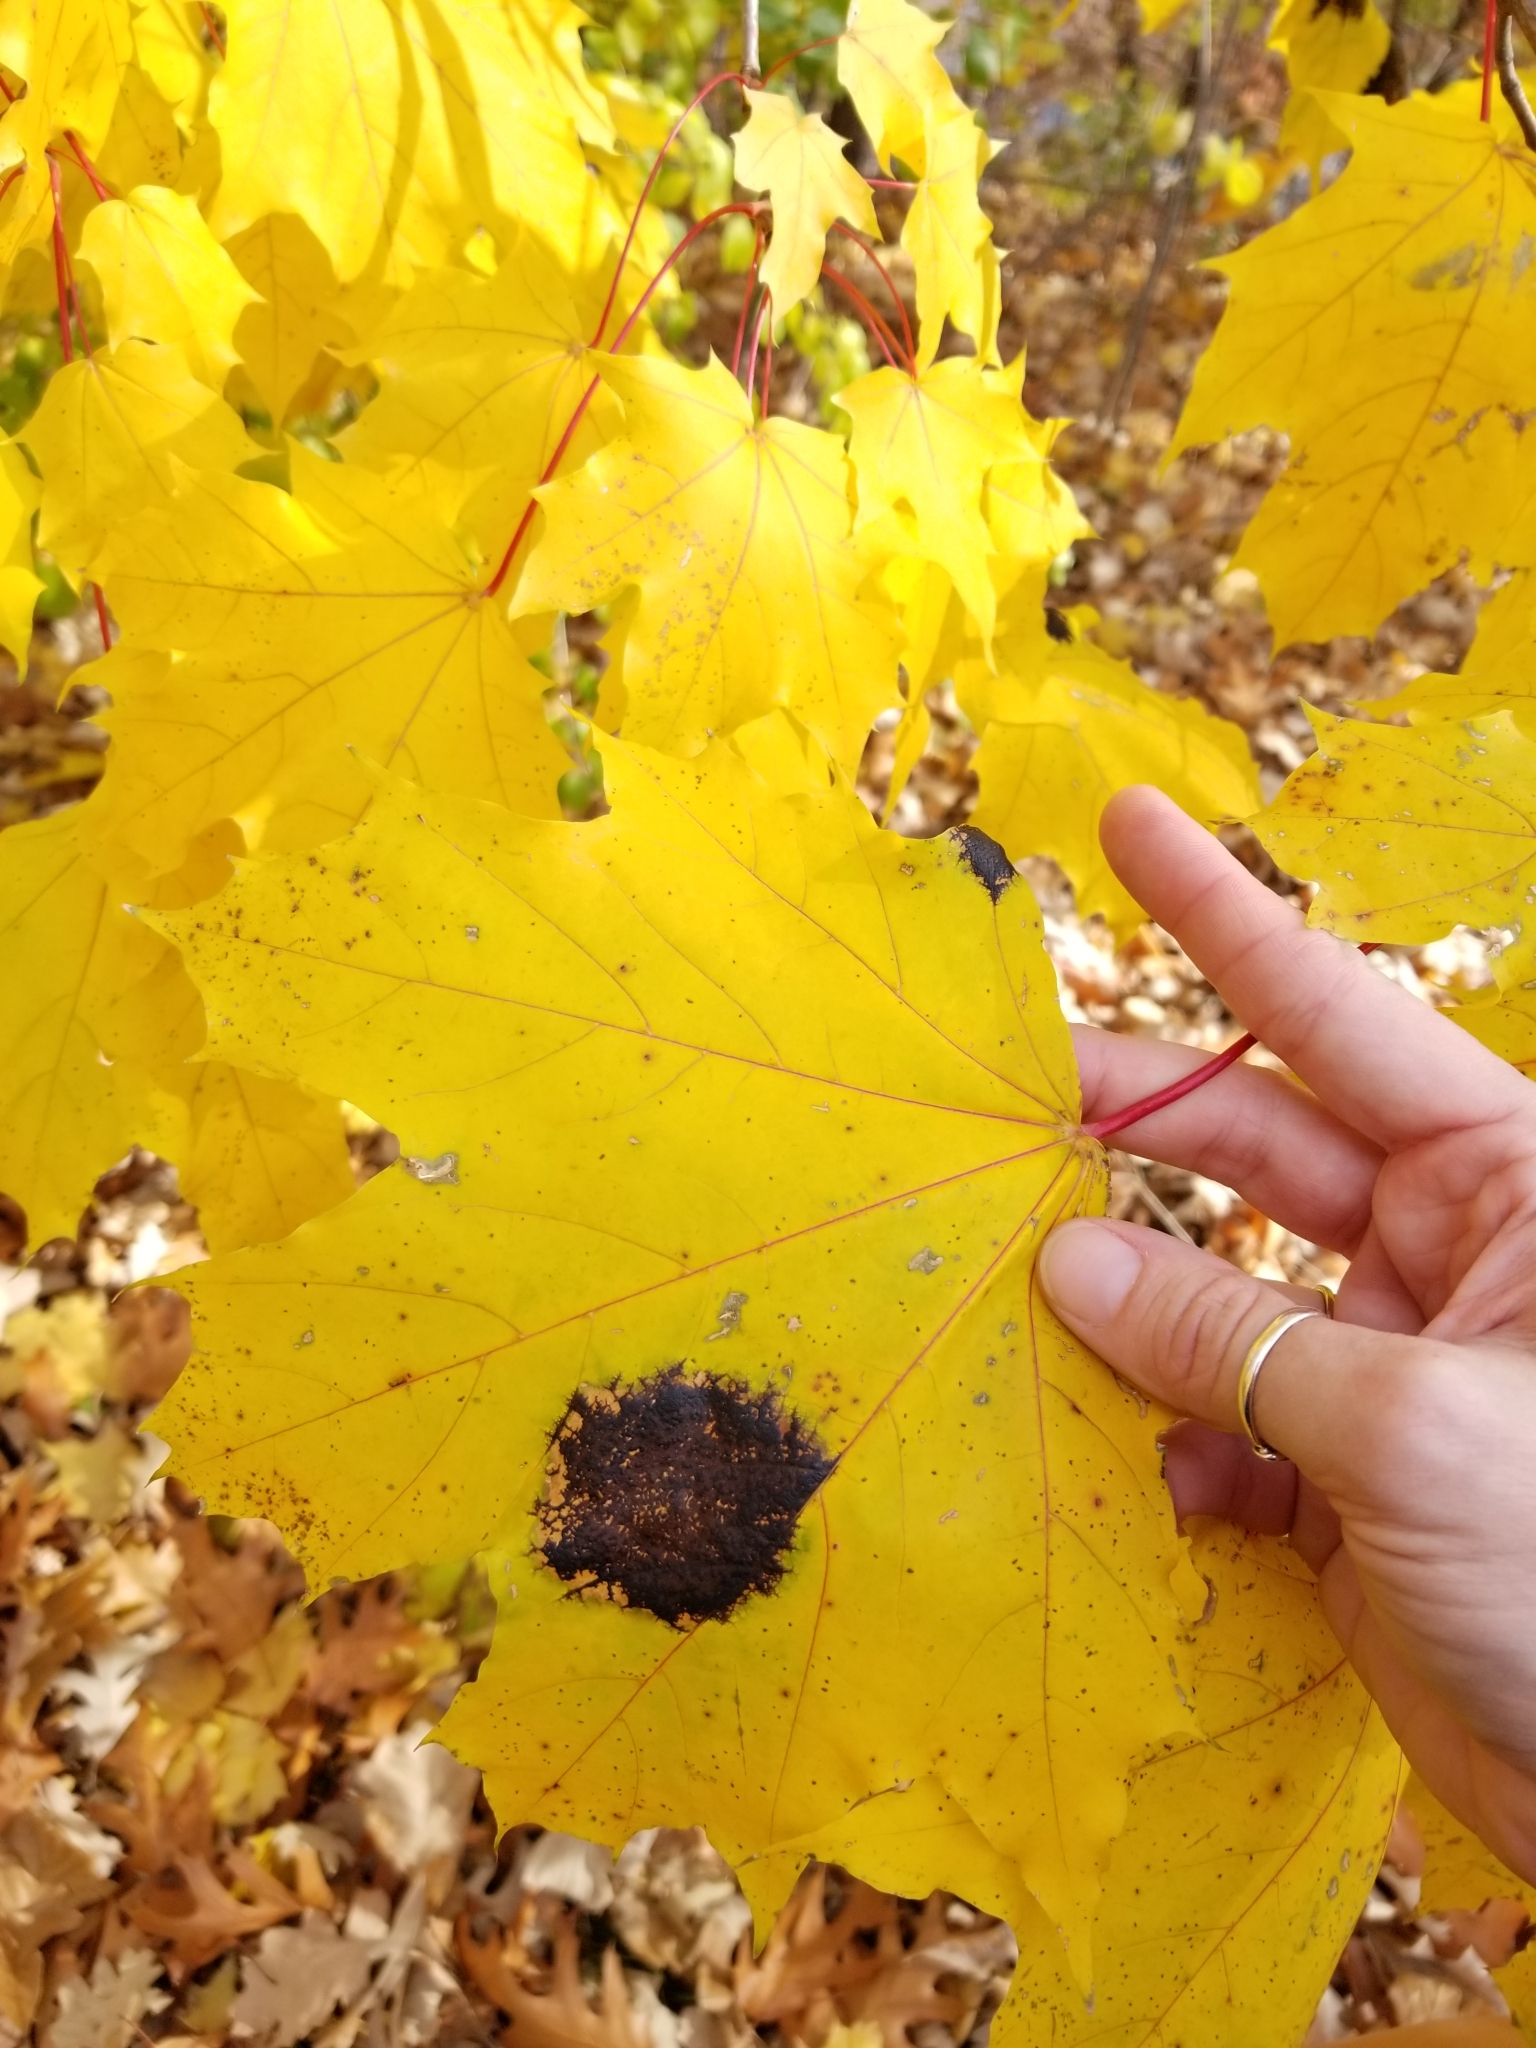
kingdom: Fungi
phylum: Ascomycota
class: Leotiomycetes
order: Rhytismatales
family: Rhytismataceae
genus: Rhytisma
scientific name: Rhytisma acerinum
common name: European tar spot
